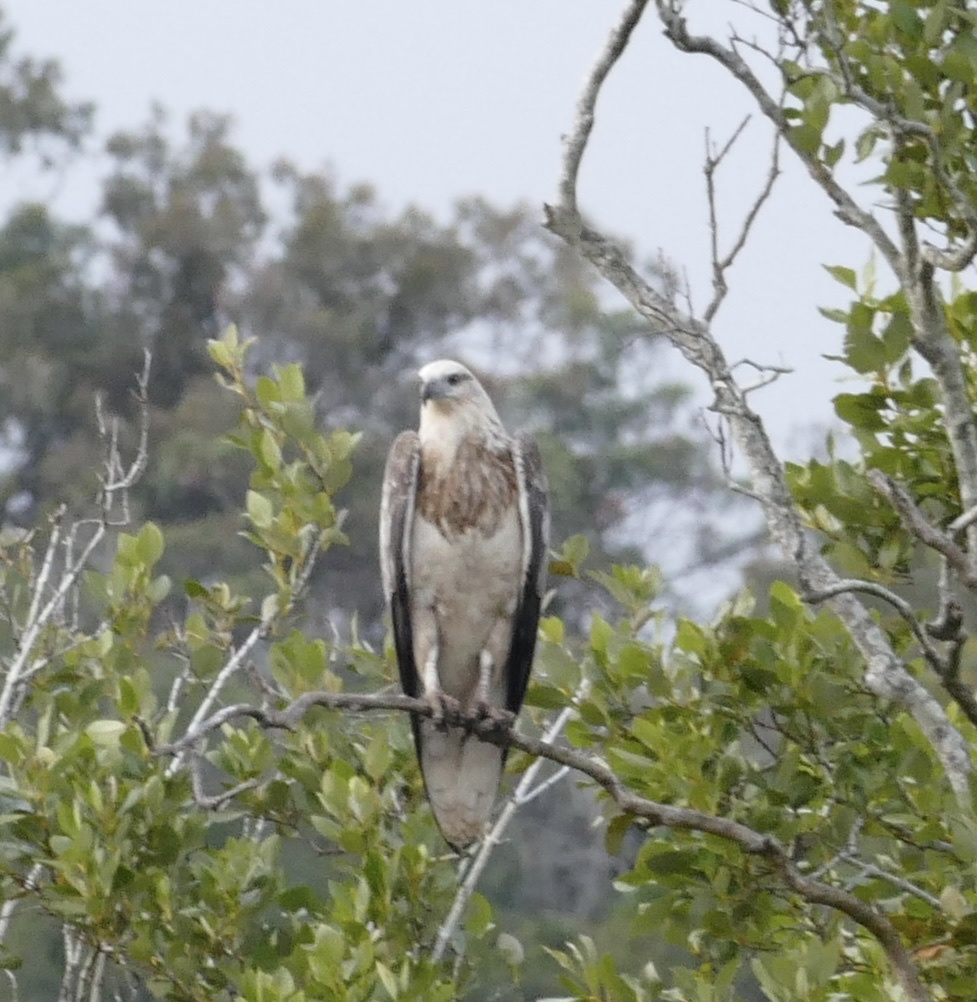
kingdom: Animalia
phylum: Chordata
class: Aves
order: Accipitriformes
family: Accipitridae
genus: Haliaeetus
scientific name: Haliaeetus leucogaster
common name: White-bellied sea eagle
